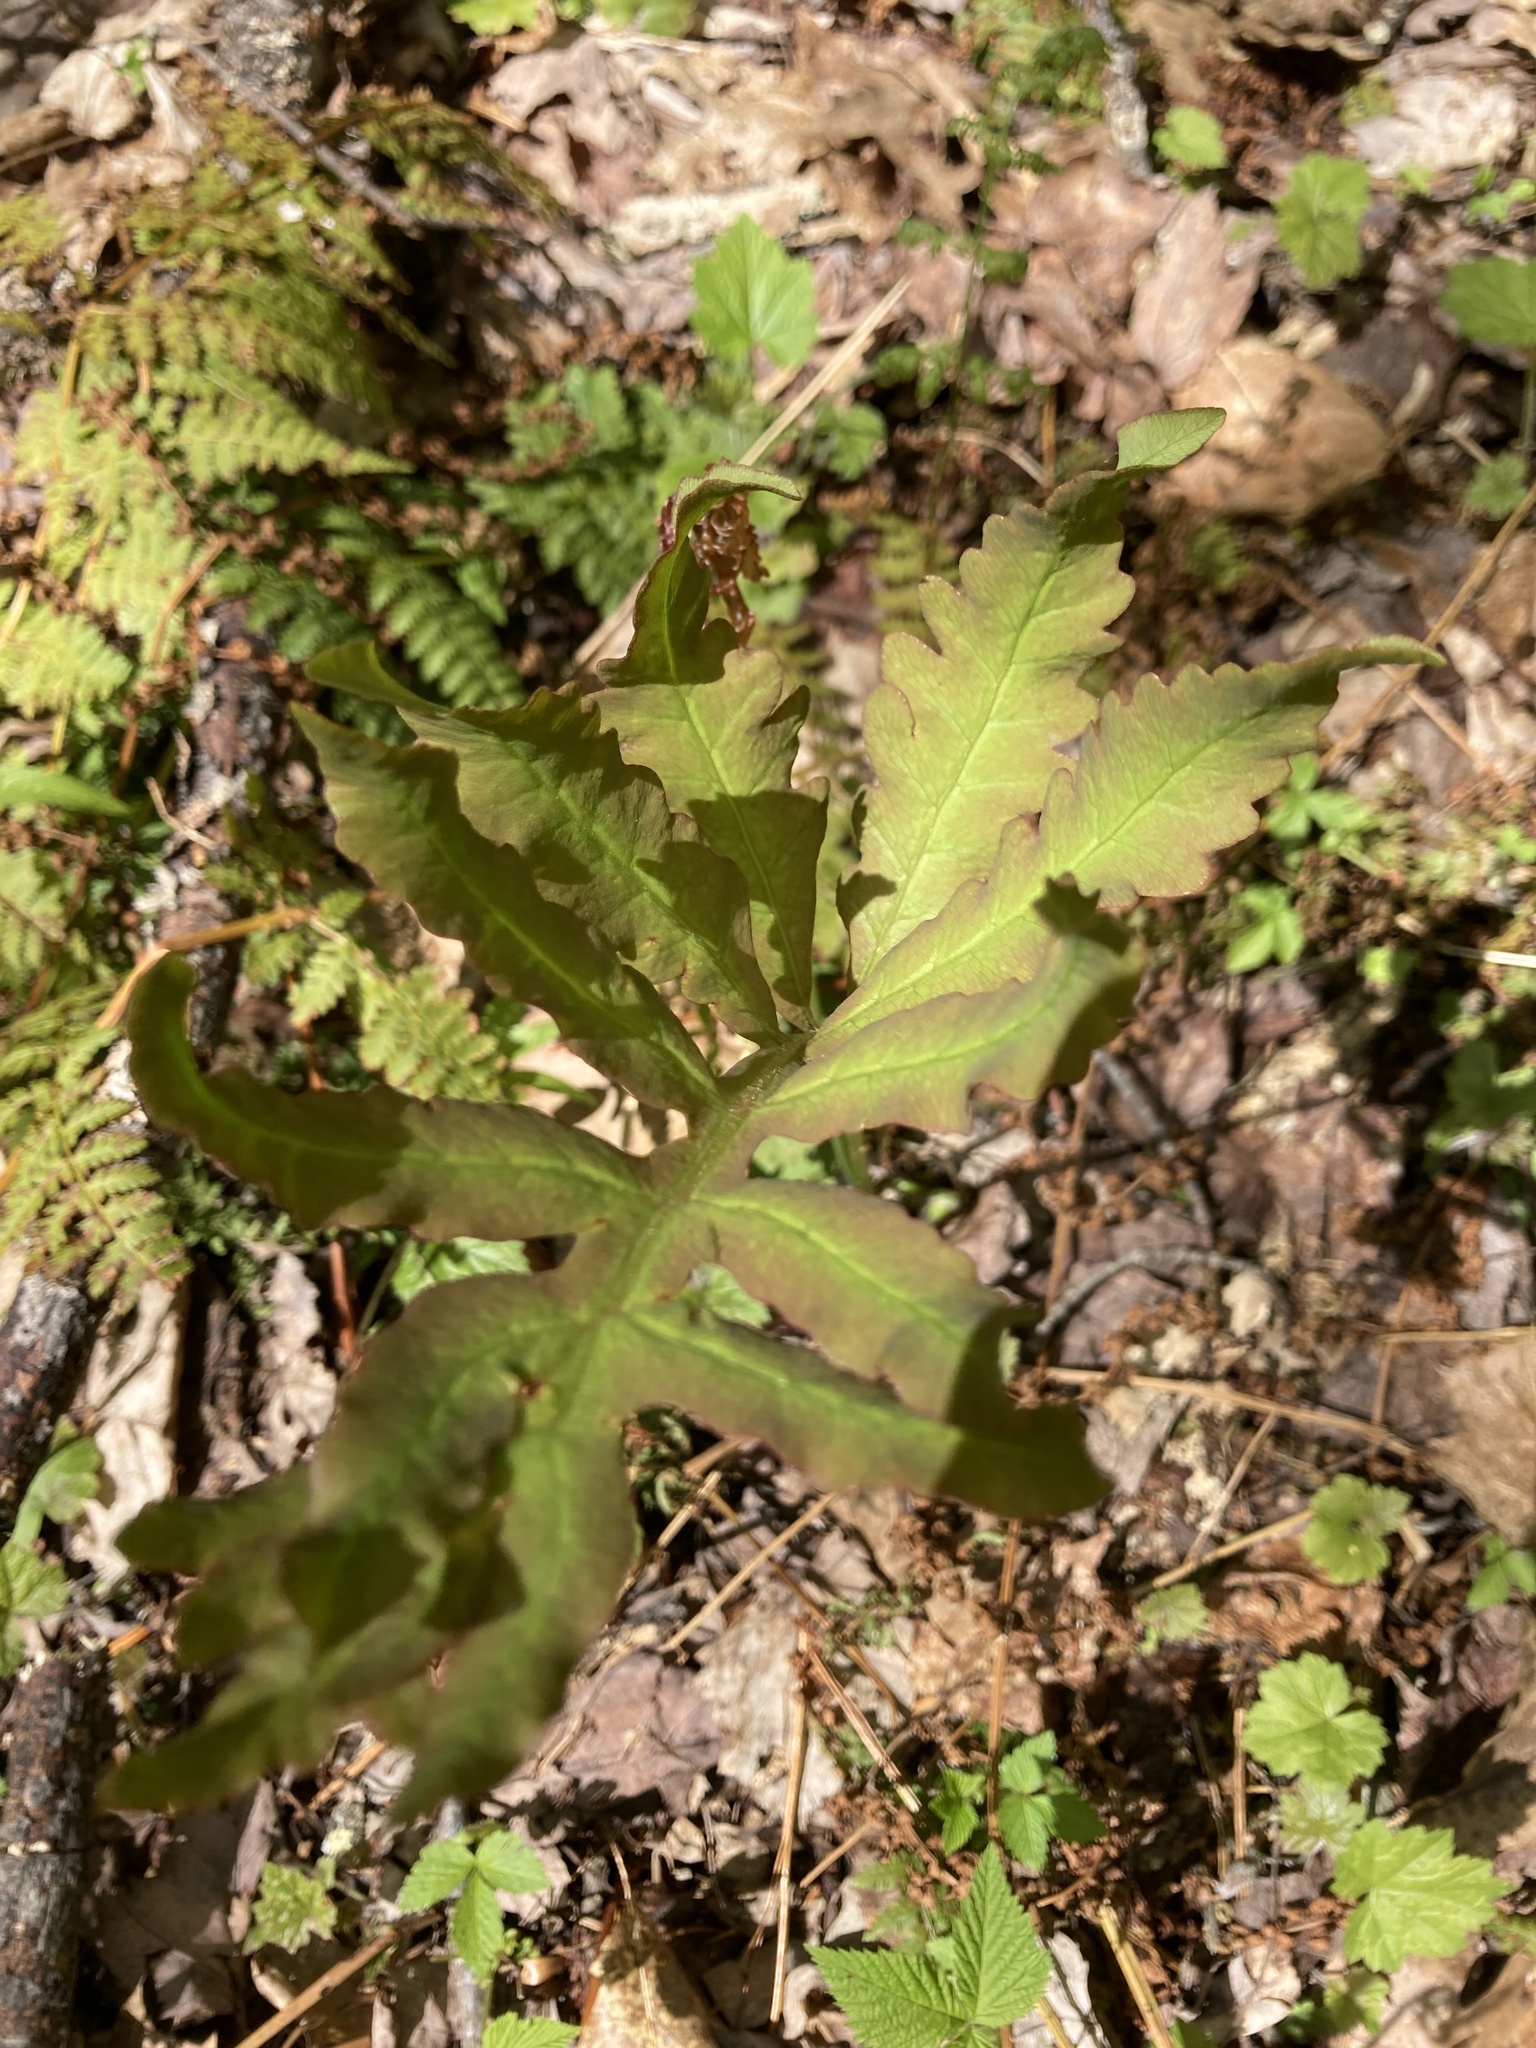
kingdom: Plantae
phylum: Tracheophyta
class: Polypodiopsida
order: Polypodiales
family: Onocleaceae
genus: Onoclea
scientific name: Onoclea sensibilis
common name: Sensitive fern
